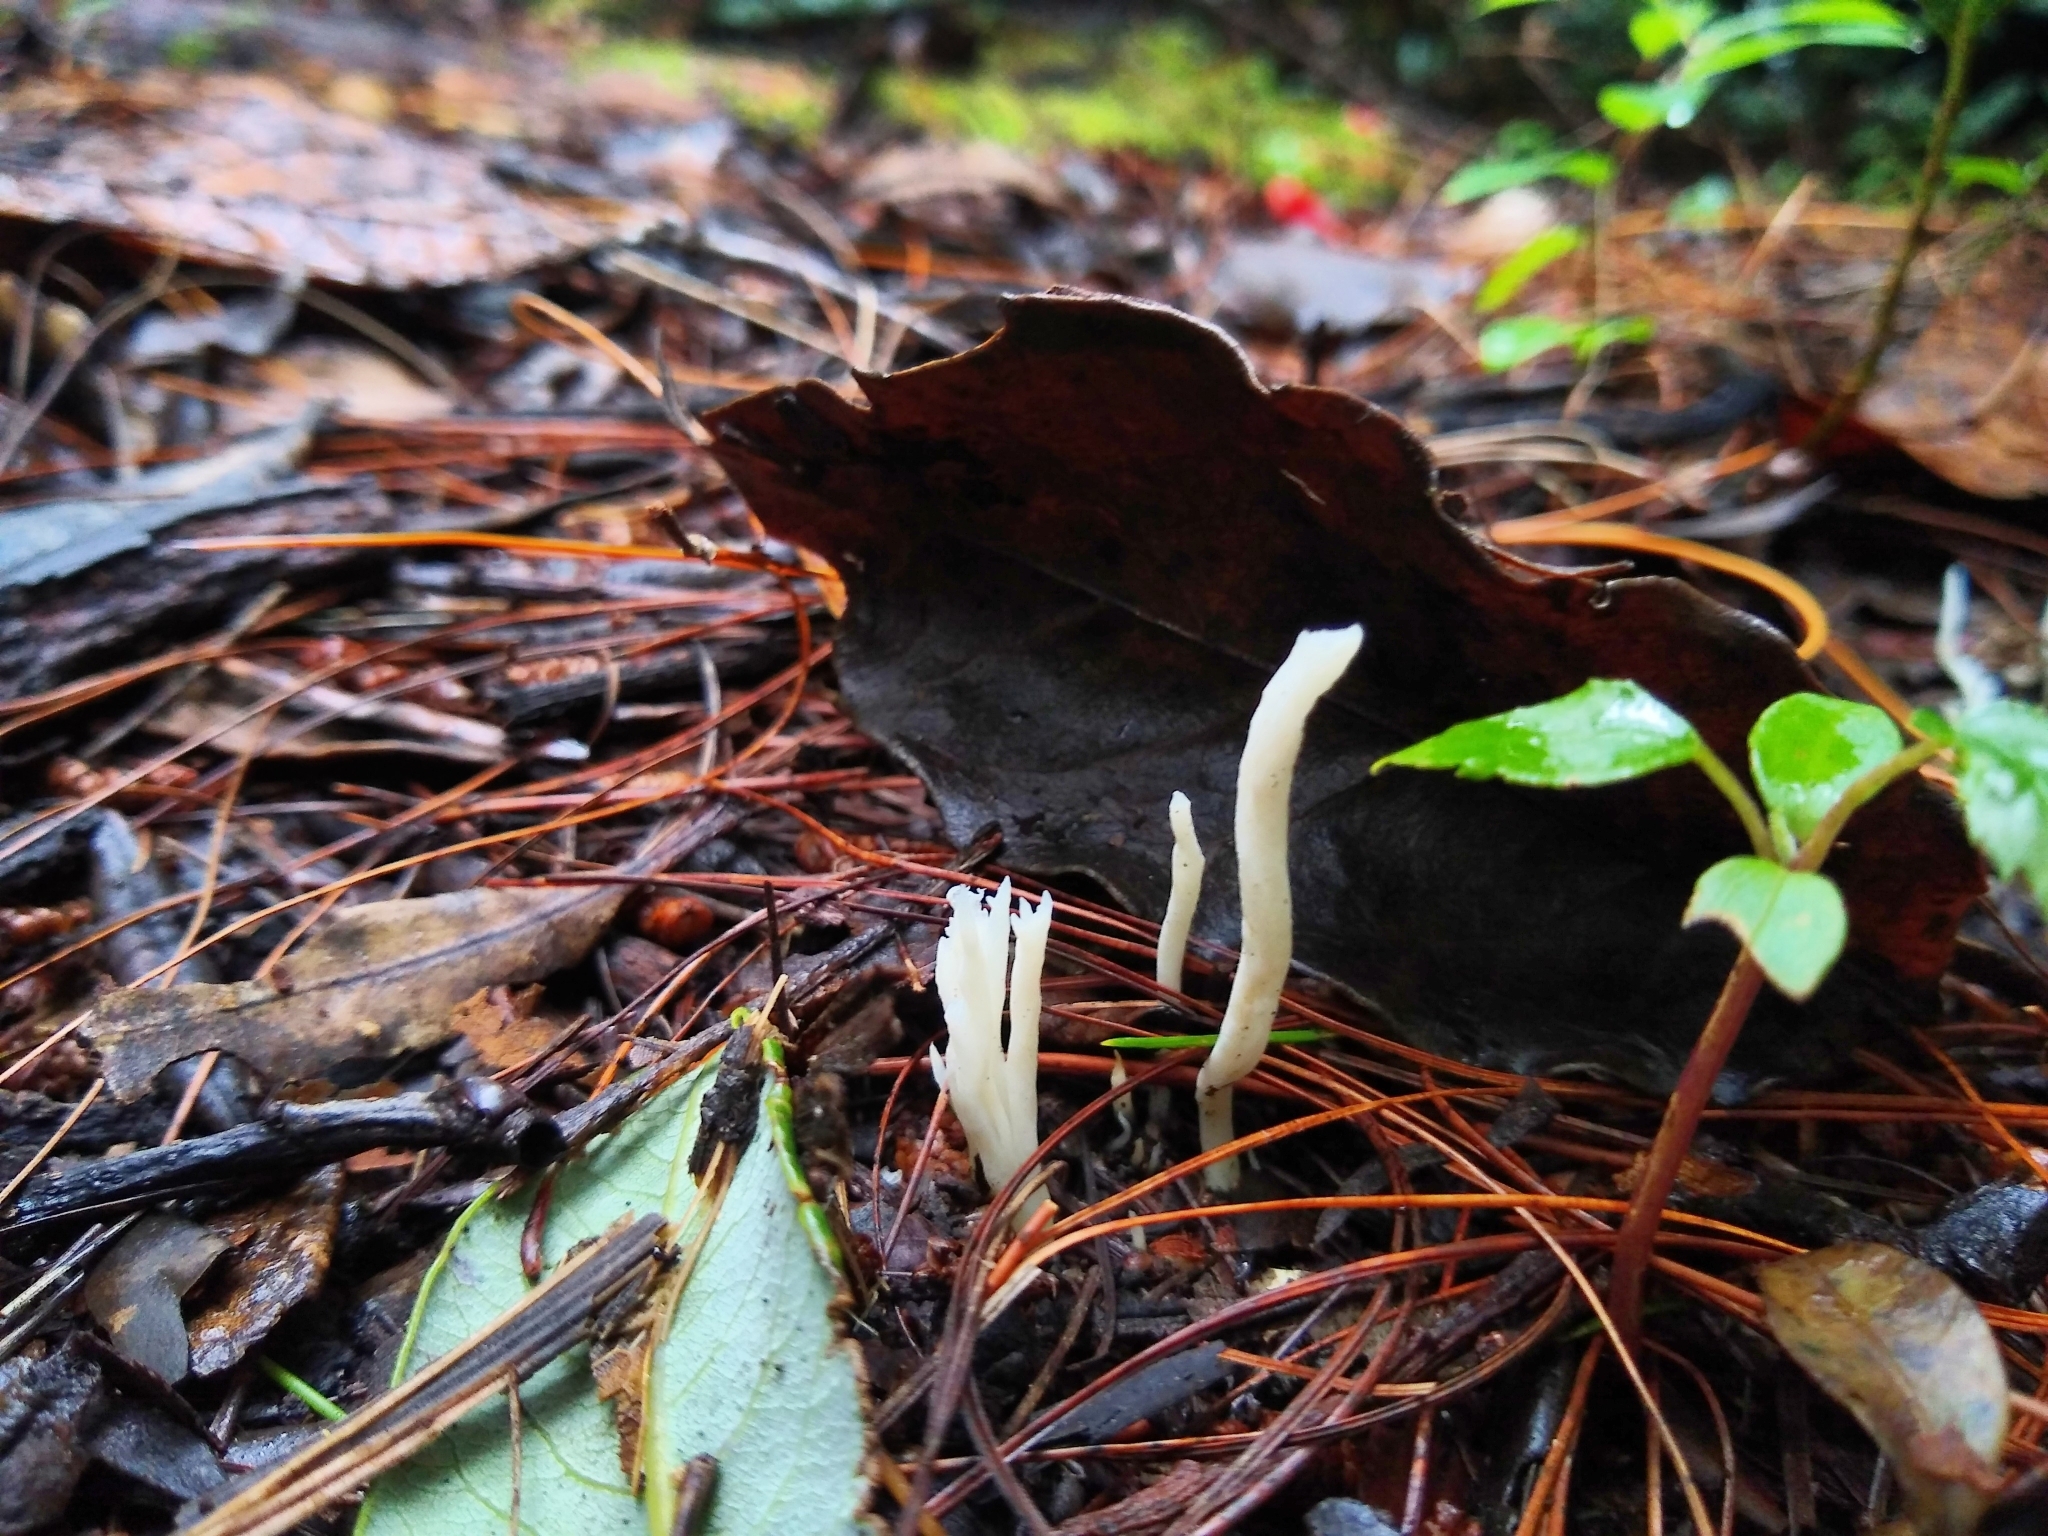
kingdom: Fungi
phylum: Basidiomycota
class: Agaricomycetes
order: Agaricales
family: Clavariaceae
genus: Clavaria
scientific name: Clavaria fragilis
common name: White spindles
